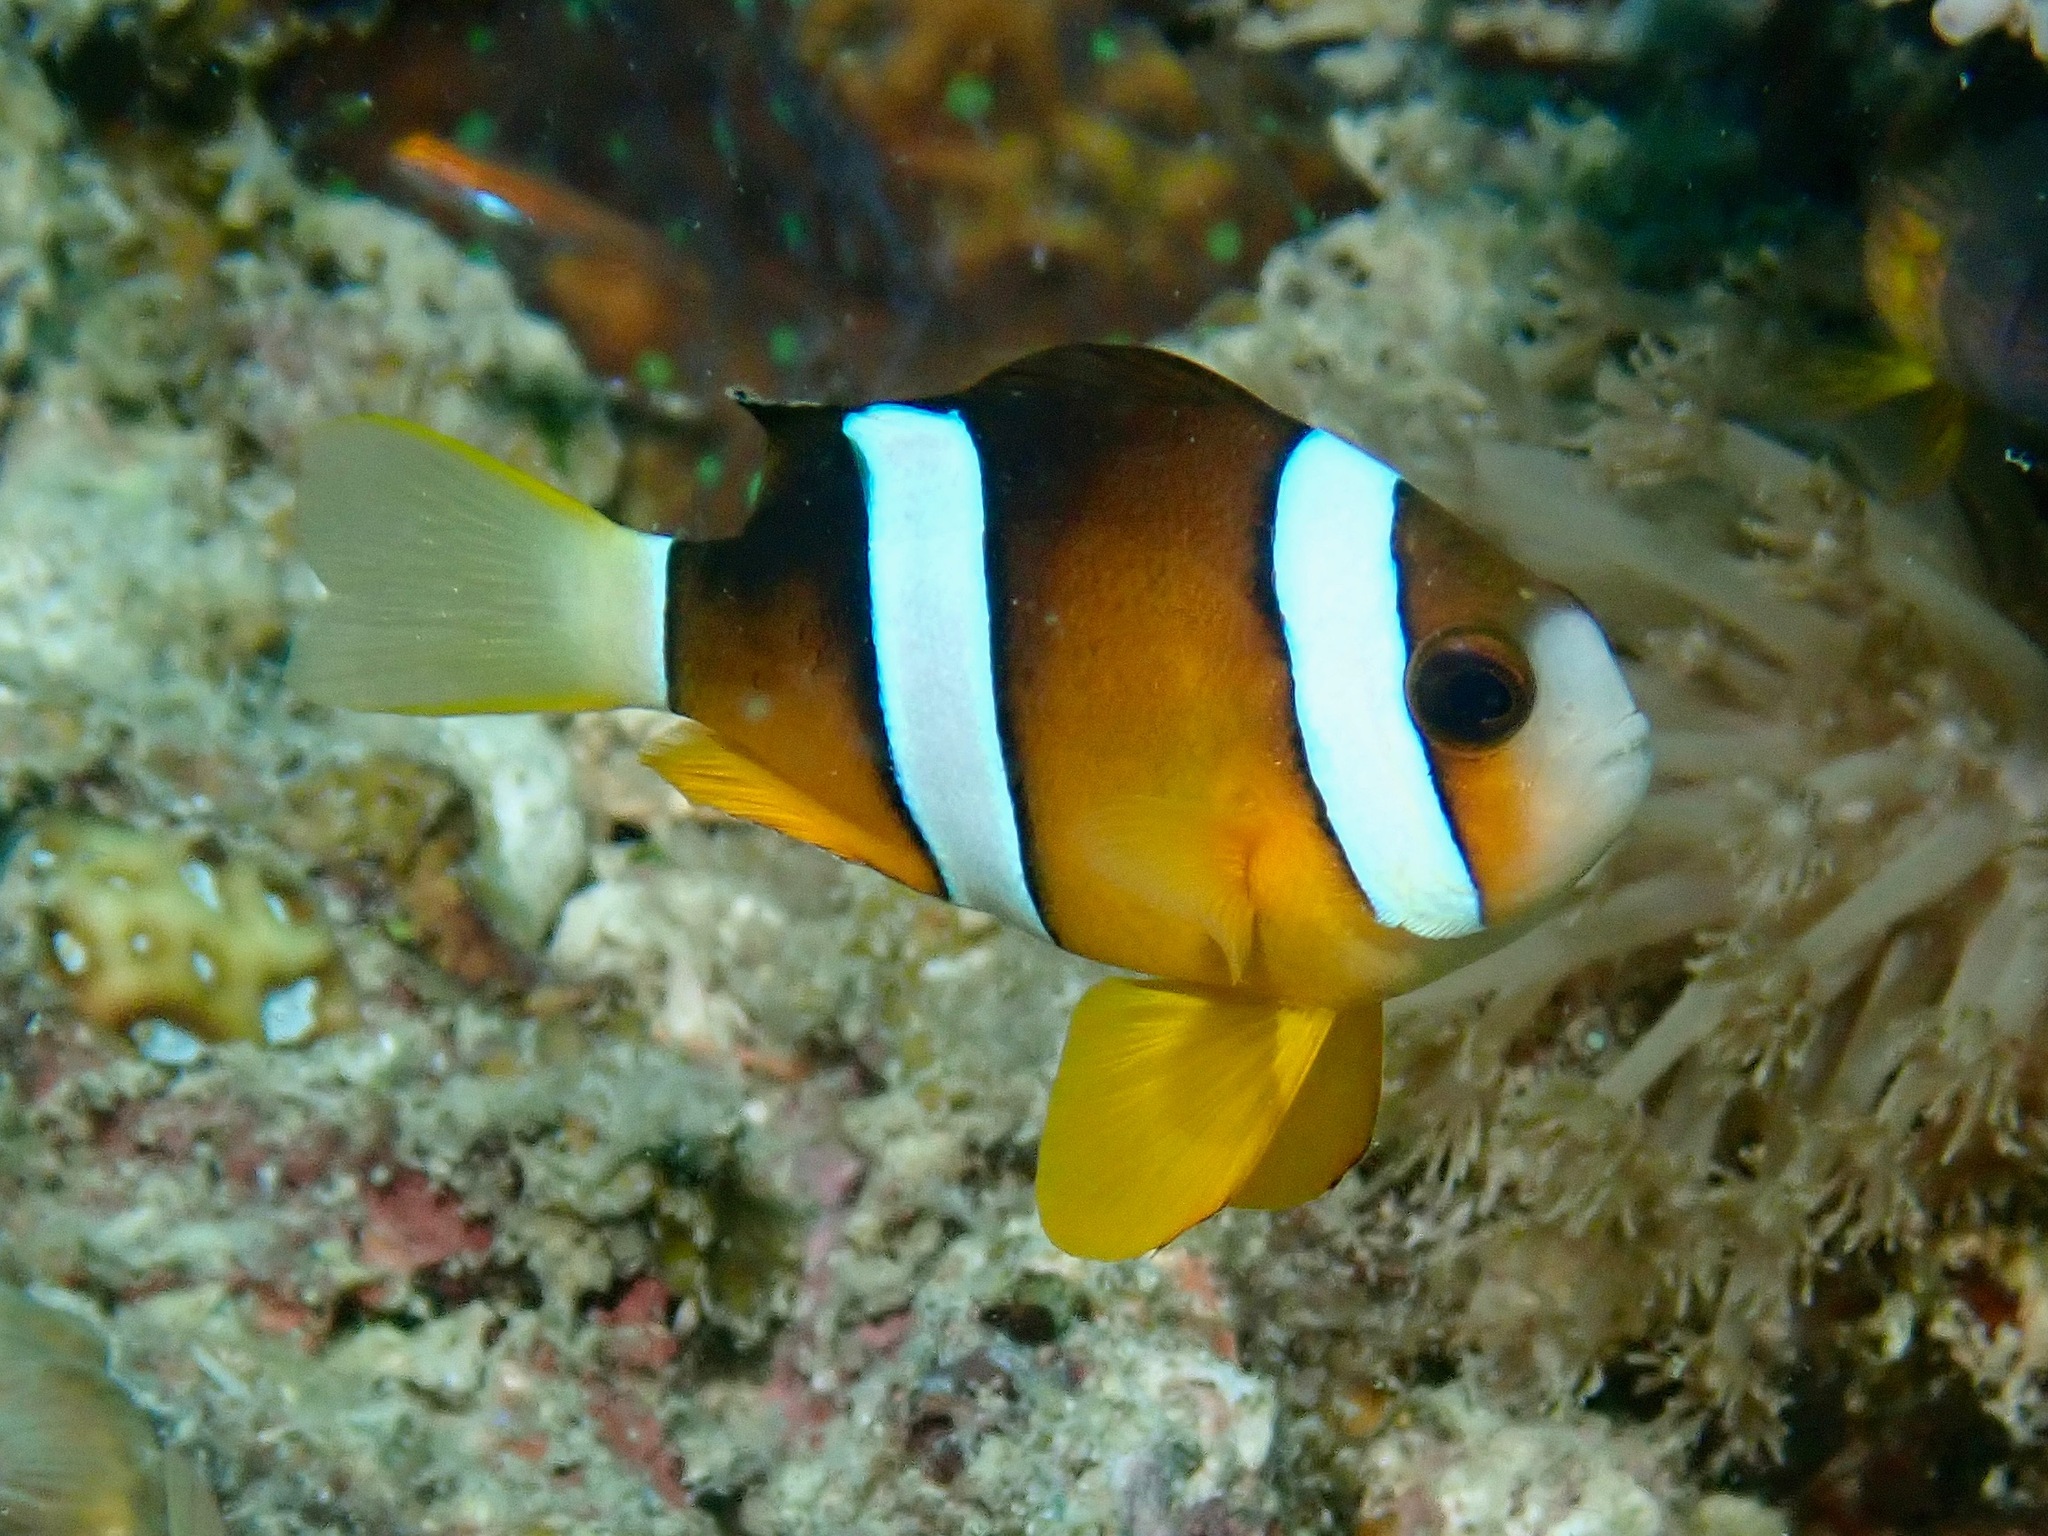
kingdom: Animalia
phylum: Chordata
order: Perciformes
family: Pomacentridae
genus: Amphiprion
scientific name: Amphiprion clarkii
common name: Clark's anemonefish
